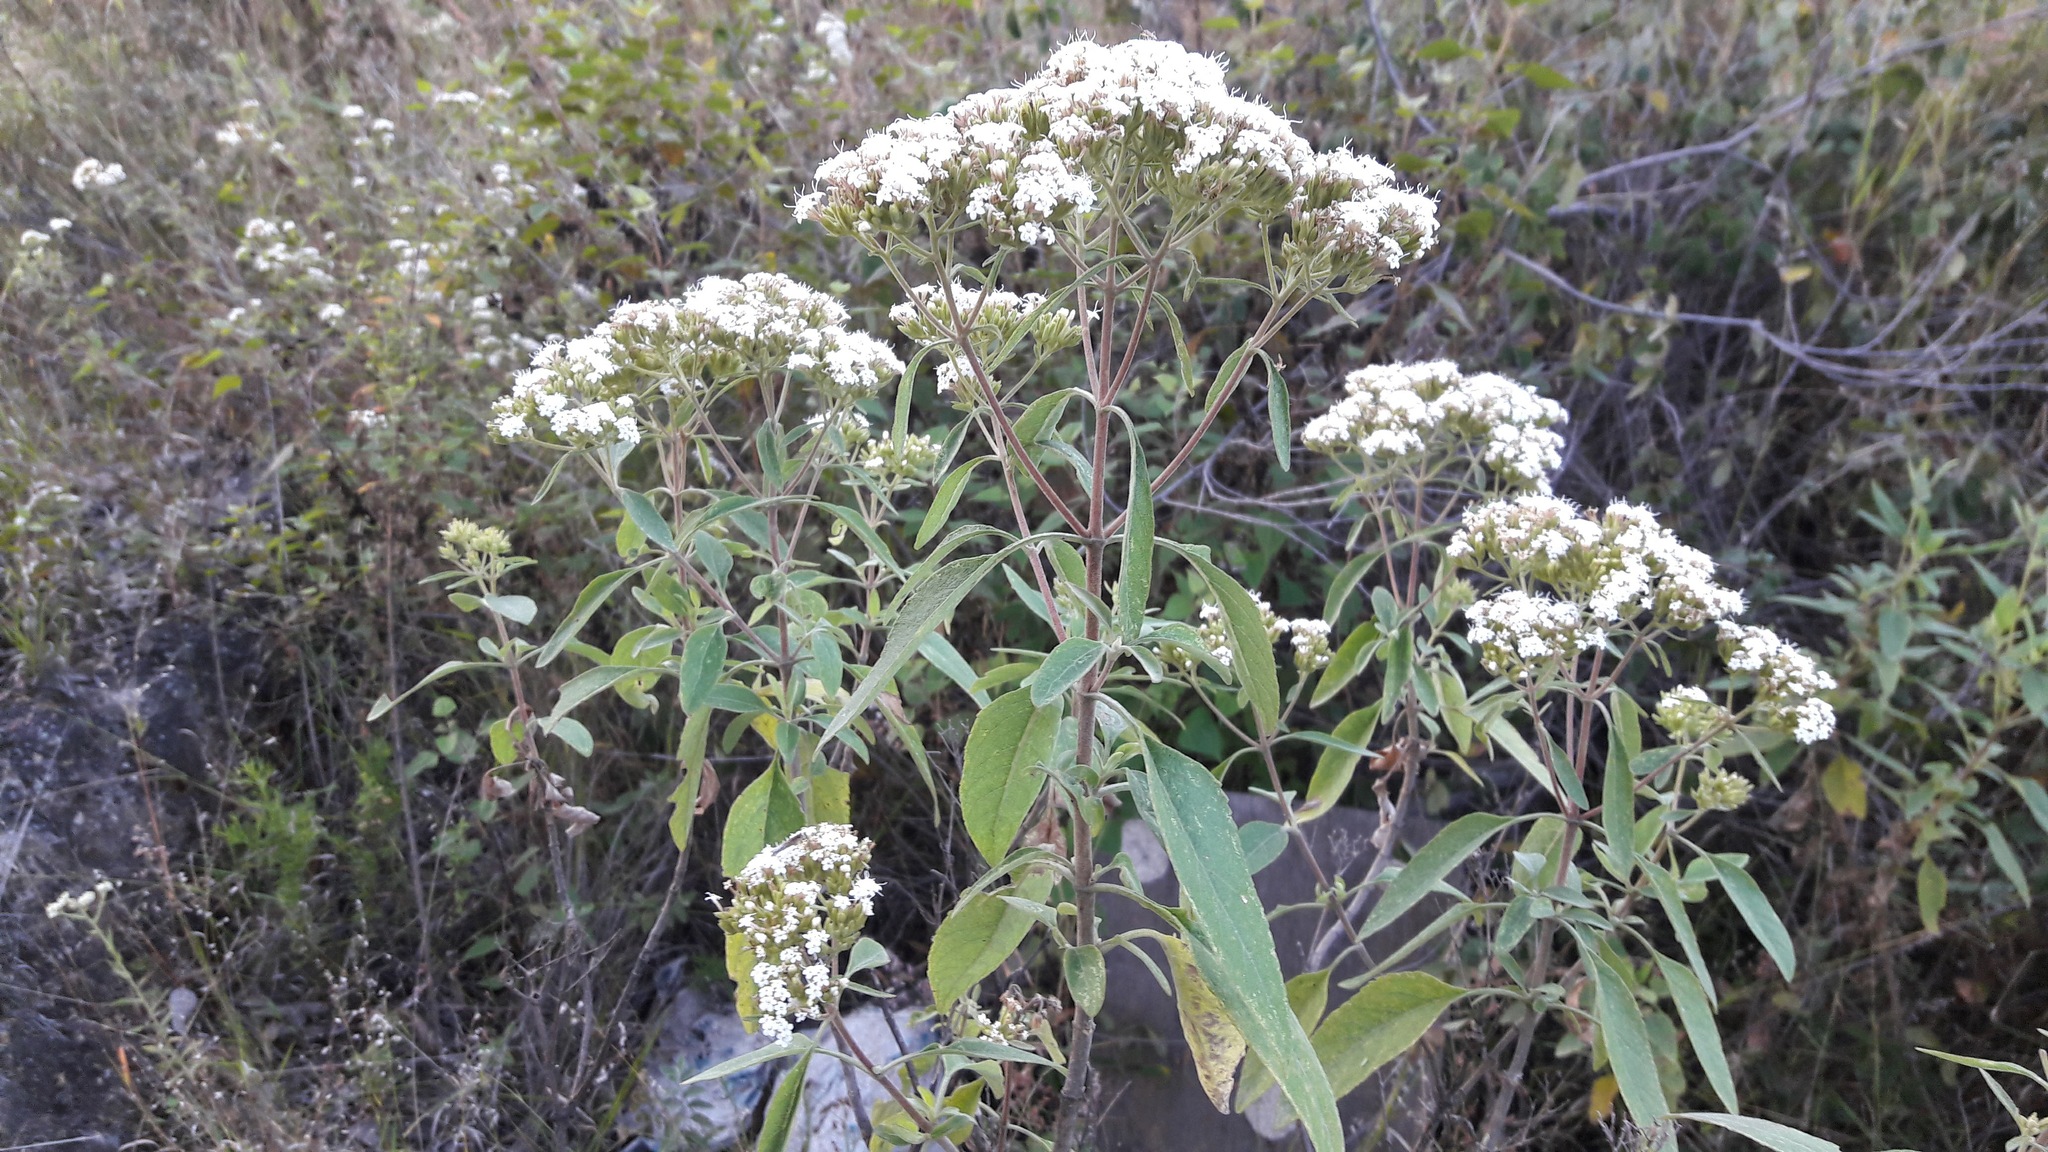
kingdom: Plantae
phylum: Tracheophyta
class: Magnoliopsida
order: Asterales
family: Asteraceae
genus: Stevia
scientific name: Stevia ovata
